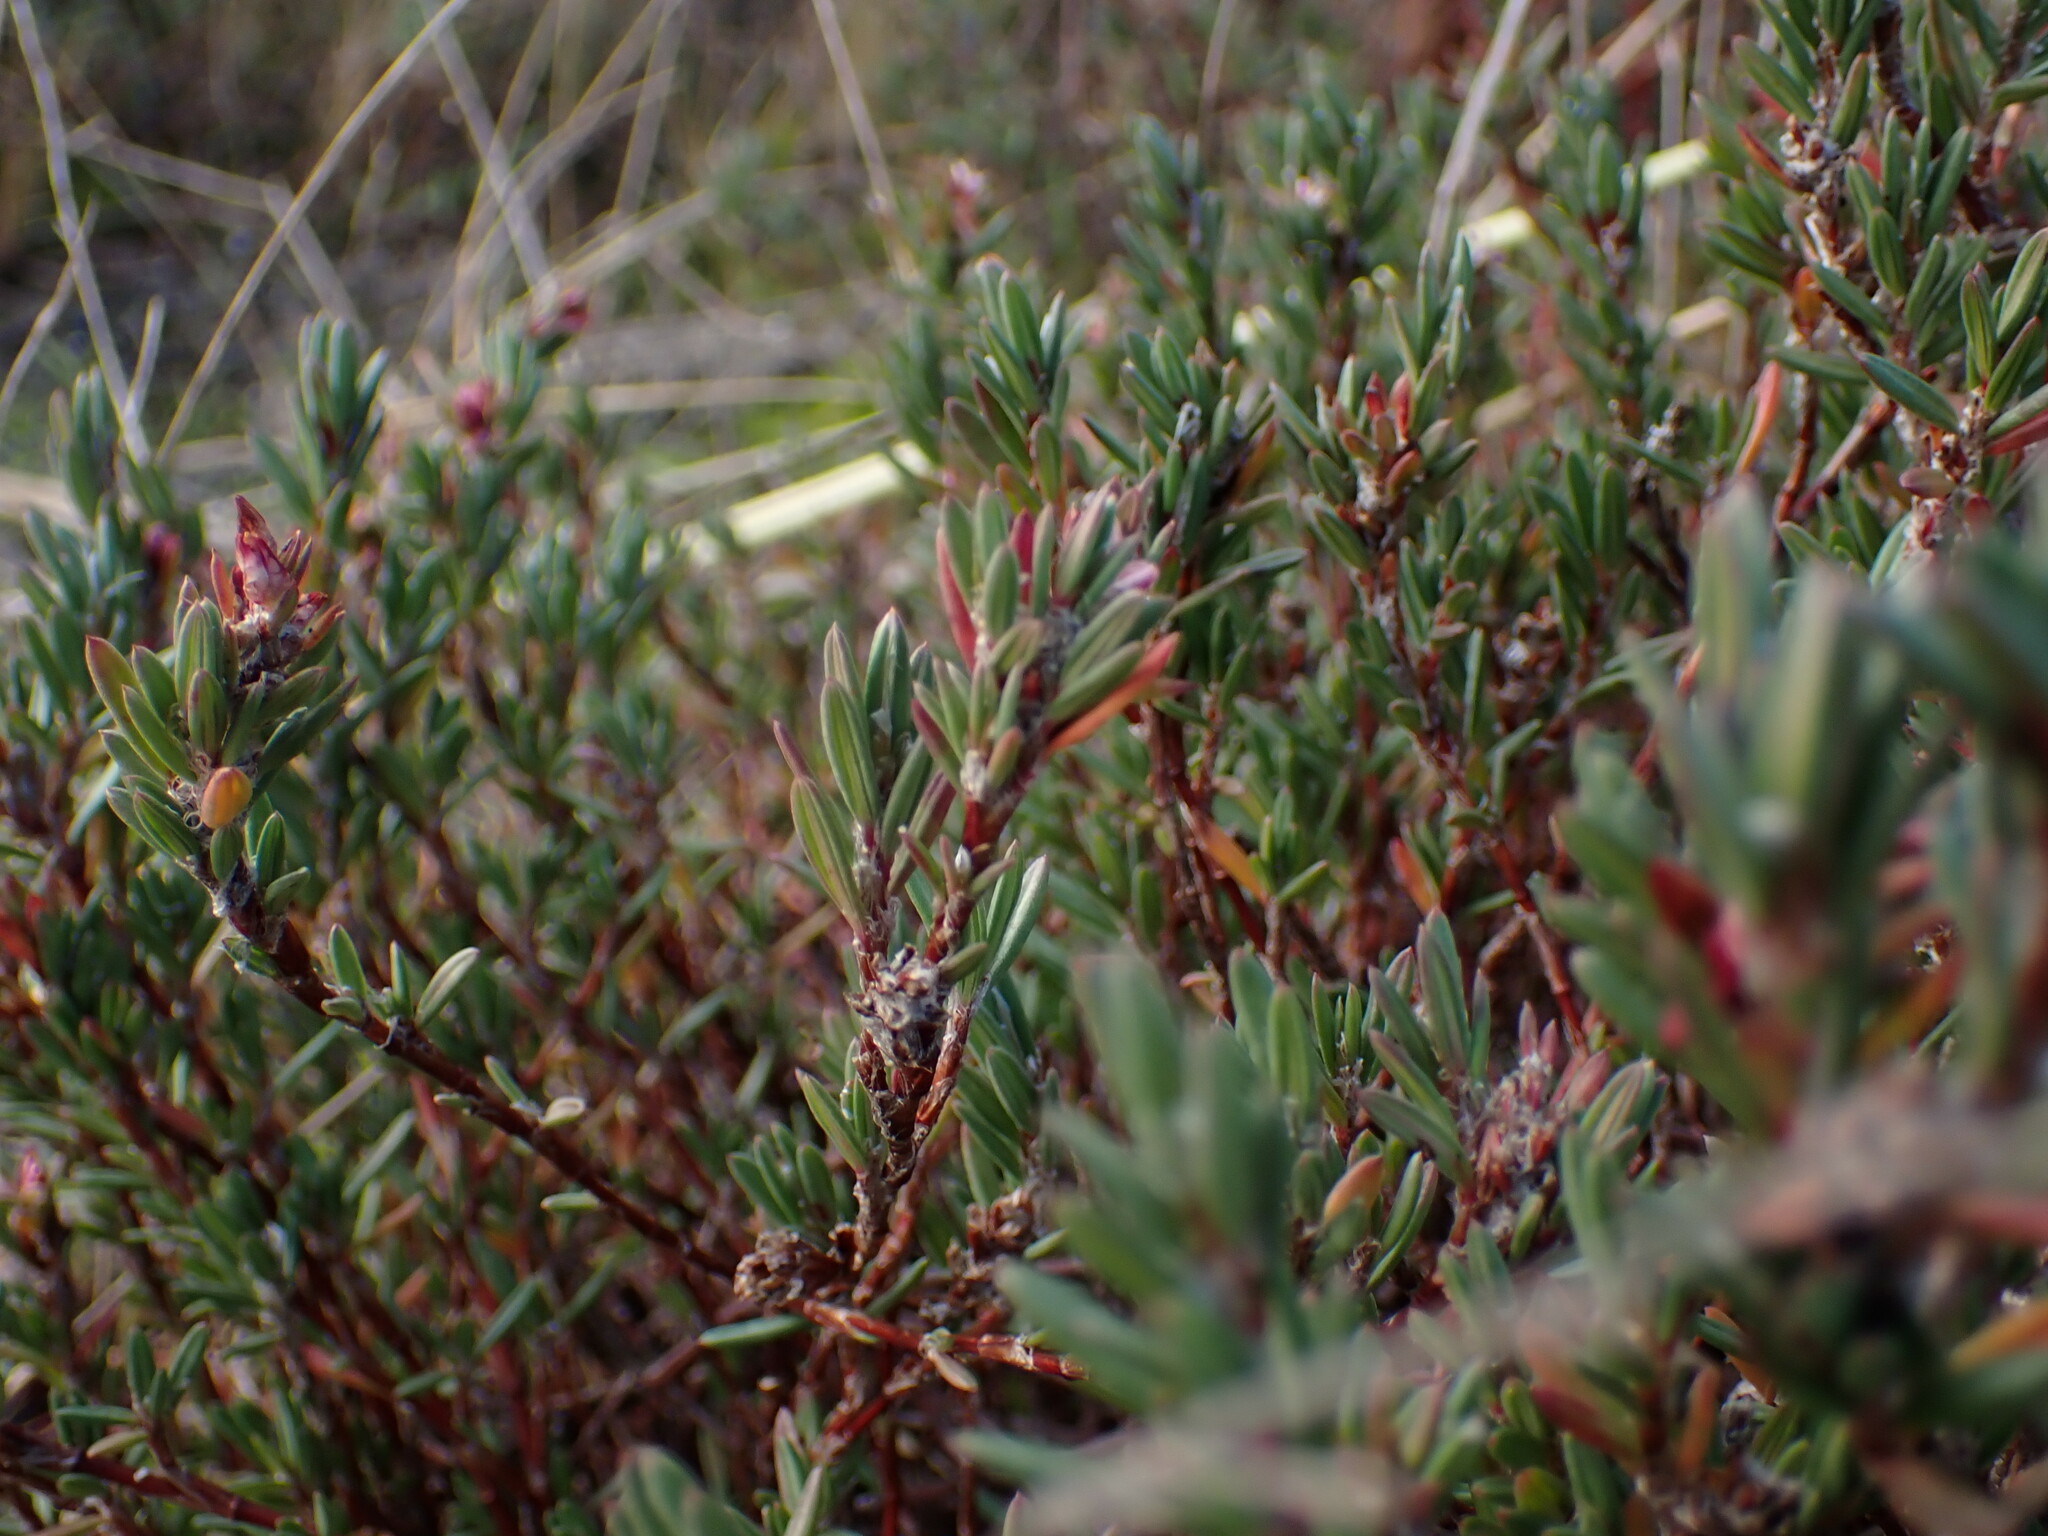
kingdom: Plantae
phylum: Tracheophyta
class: Magnoliopsida
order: Caryophyllales
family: Polygonaceae
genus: Polygonum
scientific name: Polygonum paronychia
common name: Dune knotweed
